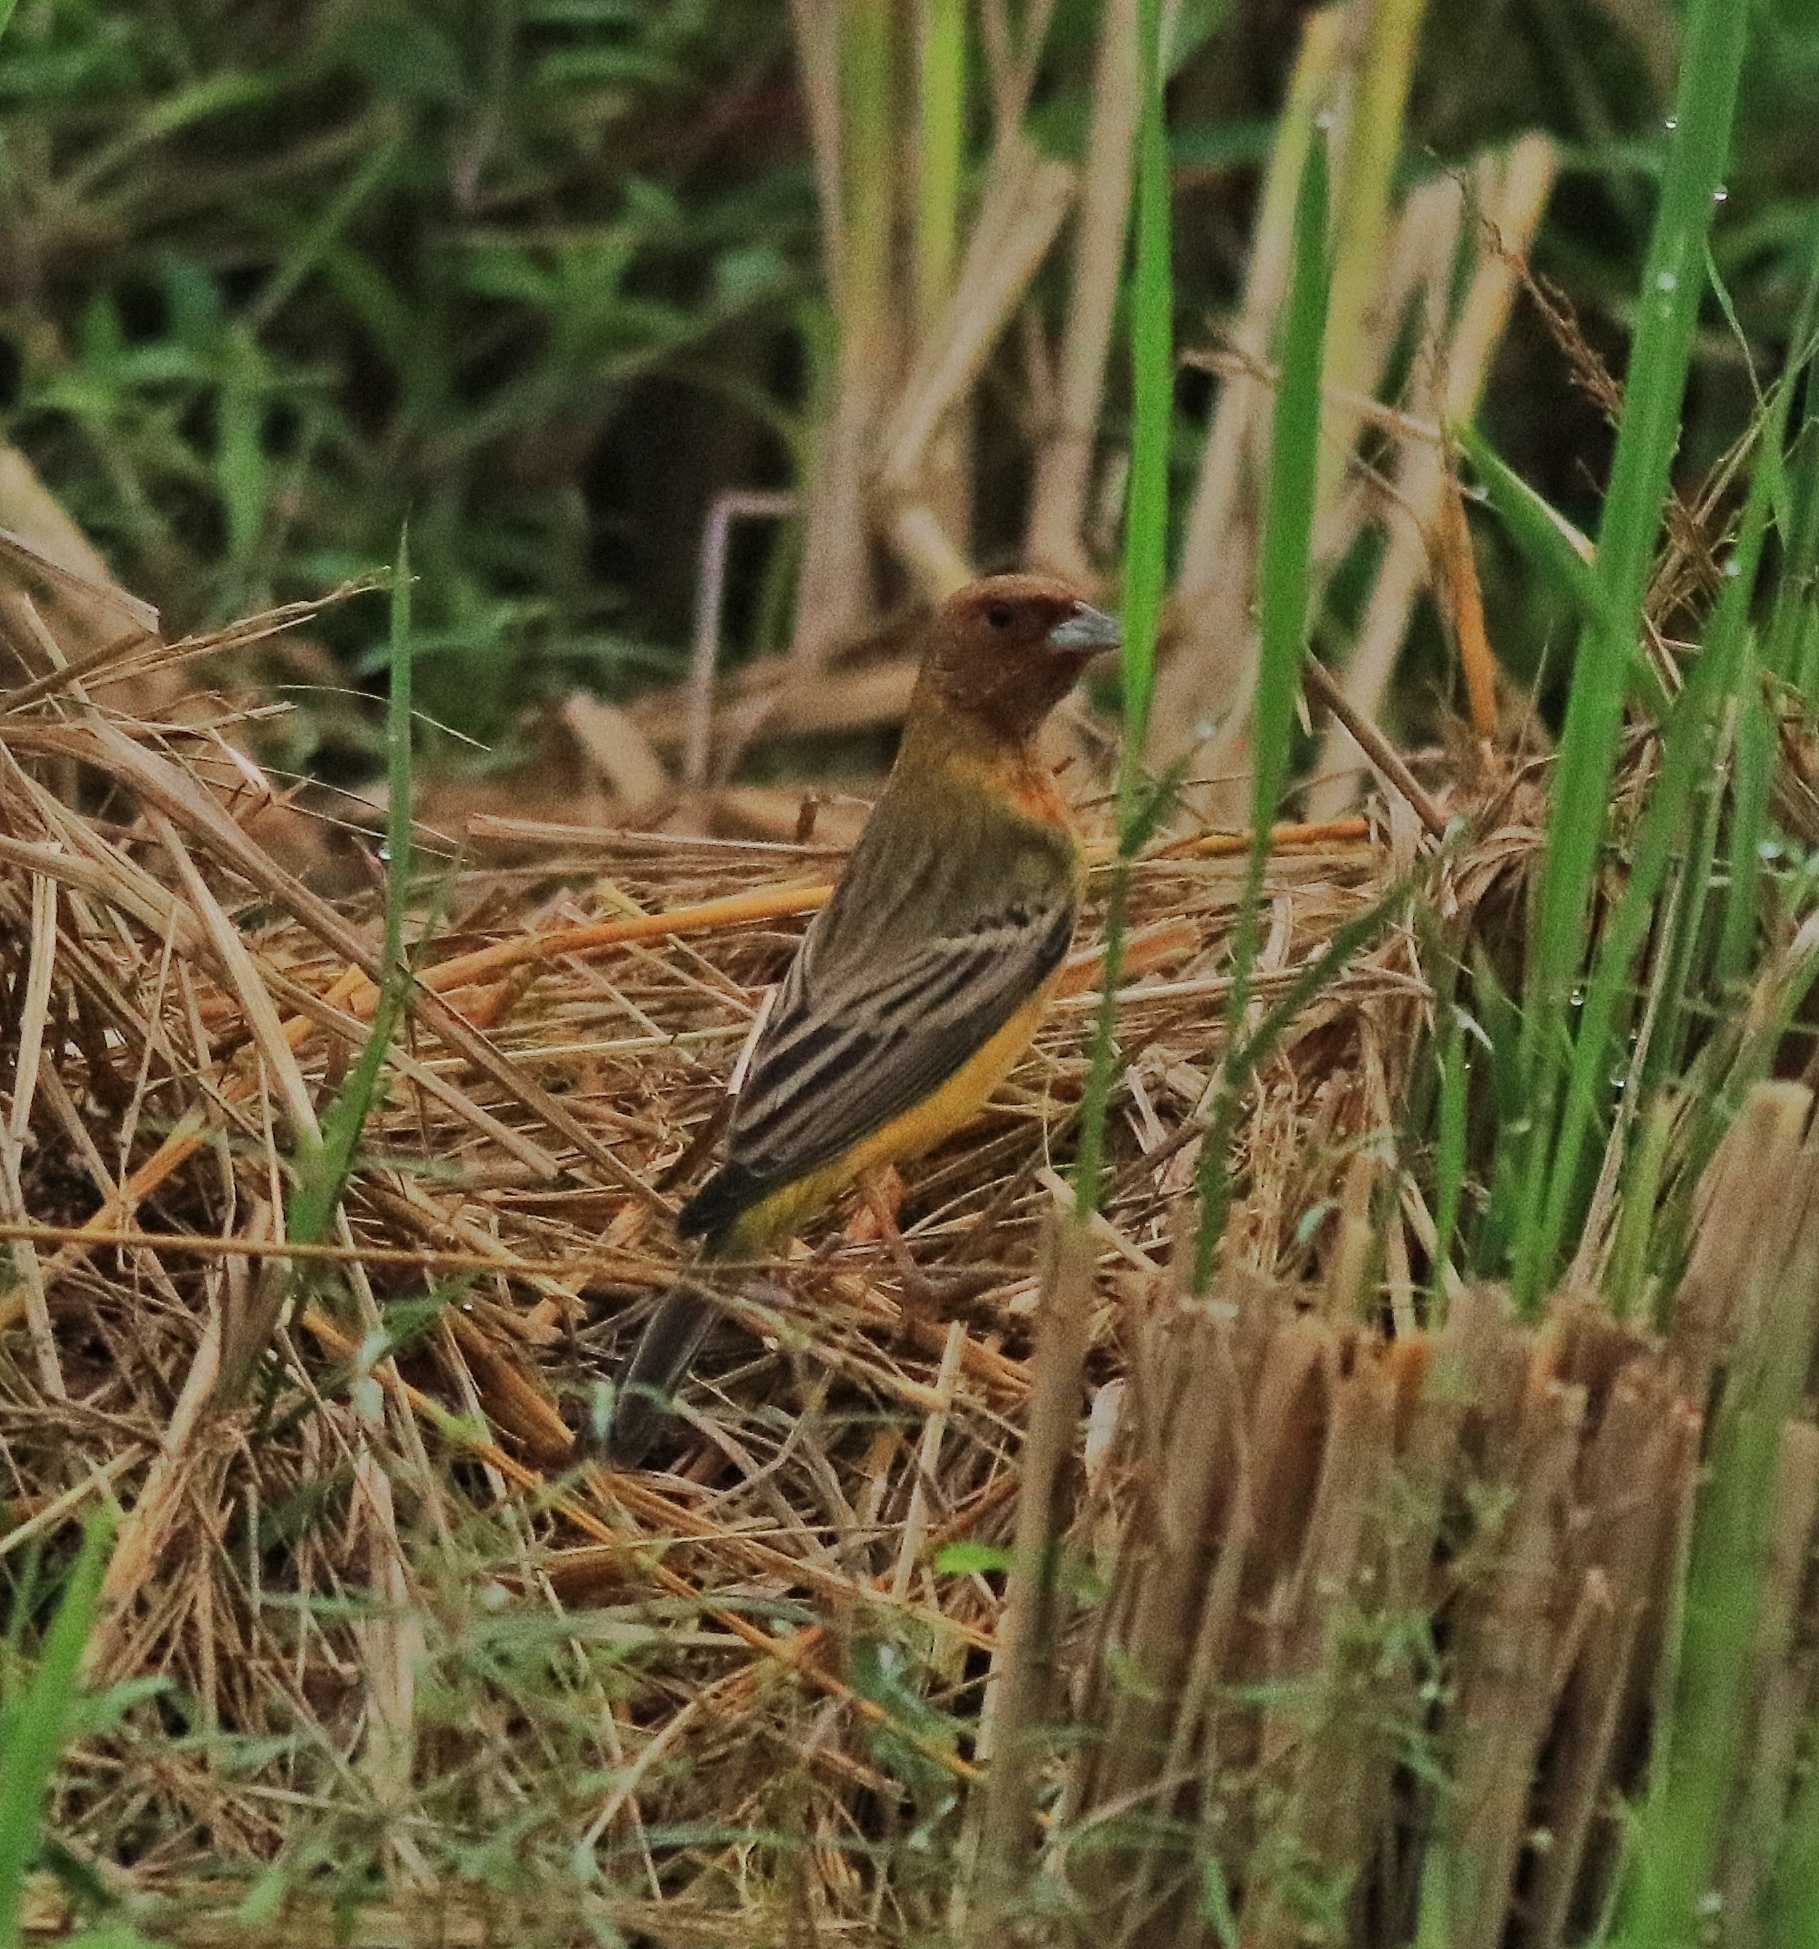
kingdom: Animalia
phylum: Chordata
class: Aves
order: Passeriformes
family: Emberizidae
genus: Emberiza
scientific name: Emberiza bruniceps
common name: Red-headed bunting
